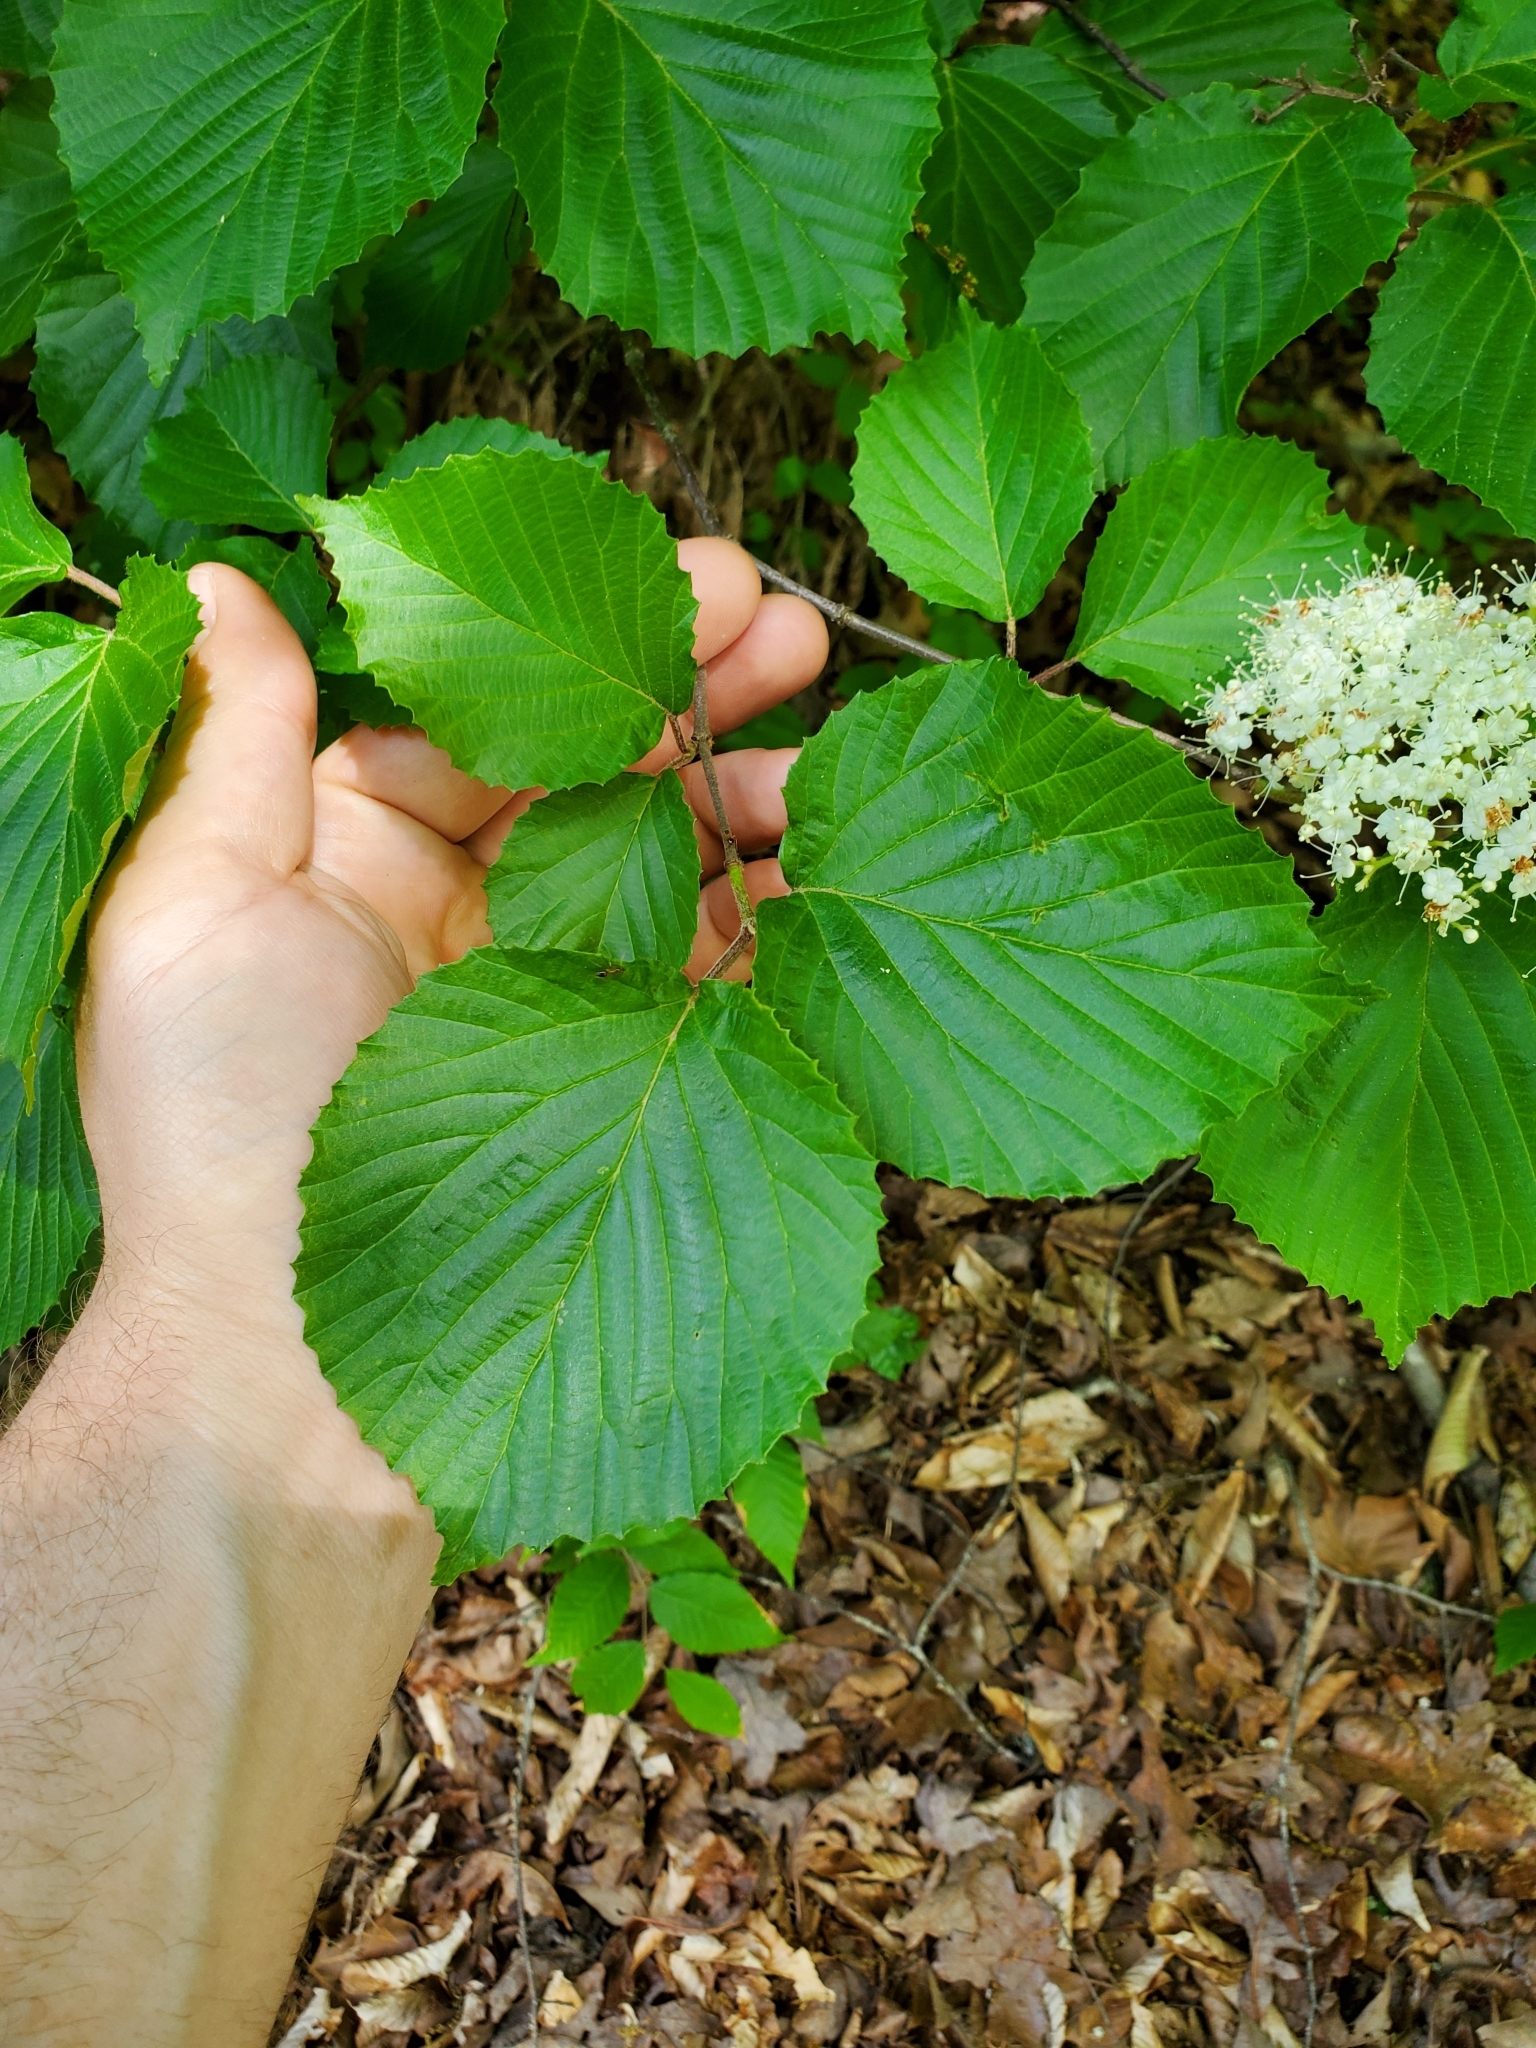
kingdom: Plantae
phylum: Tracheophyta
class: Magnoliopsida
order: Dipsacales
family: Viburnaceae
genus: Viburnum
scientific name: Viburnum dilatatum
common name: Linden arrowwood
